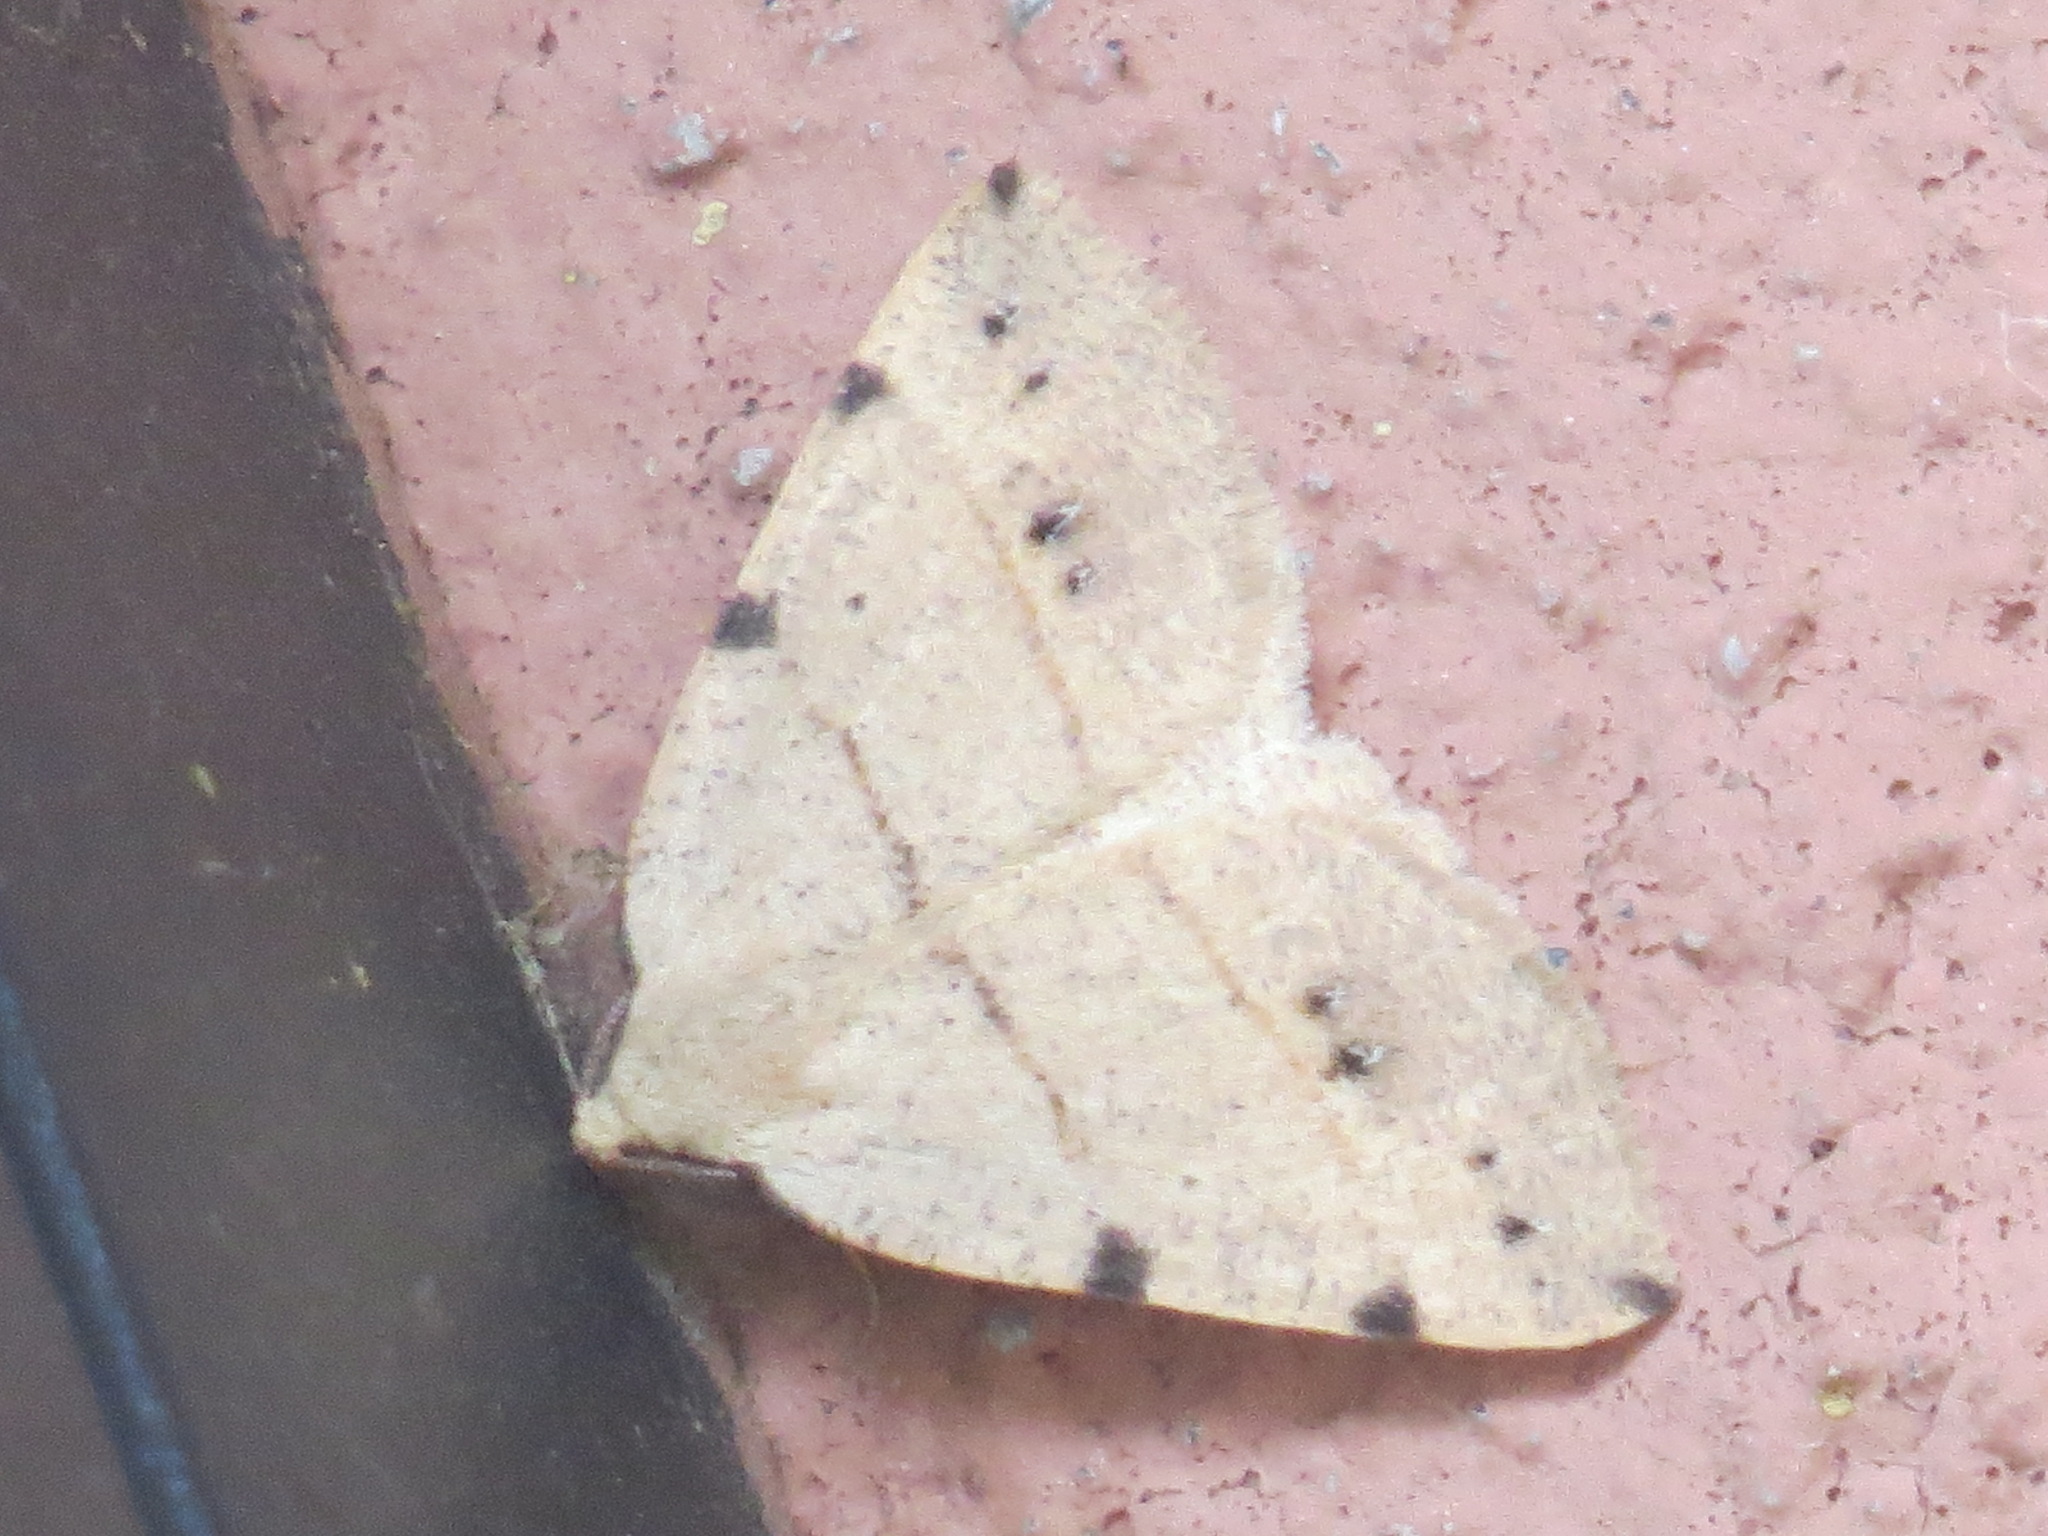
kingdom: Animalia
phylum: Arthropoda
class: Insecta
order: Lepidoptera
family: Geometridae
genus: Drepanulatrix
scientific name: Drepanulatrix bifilata
